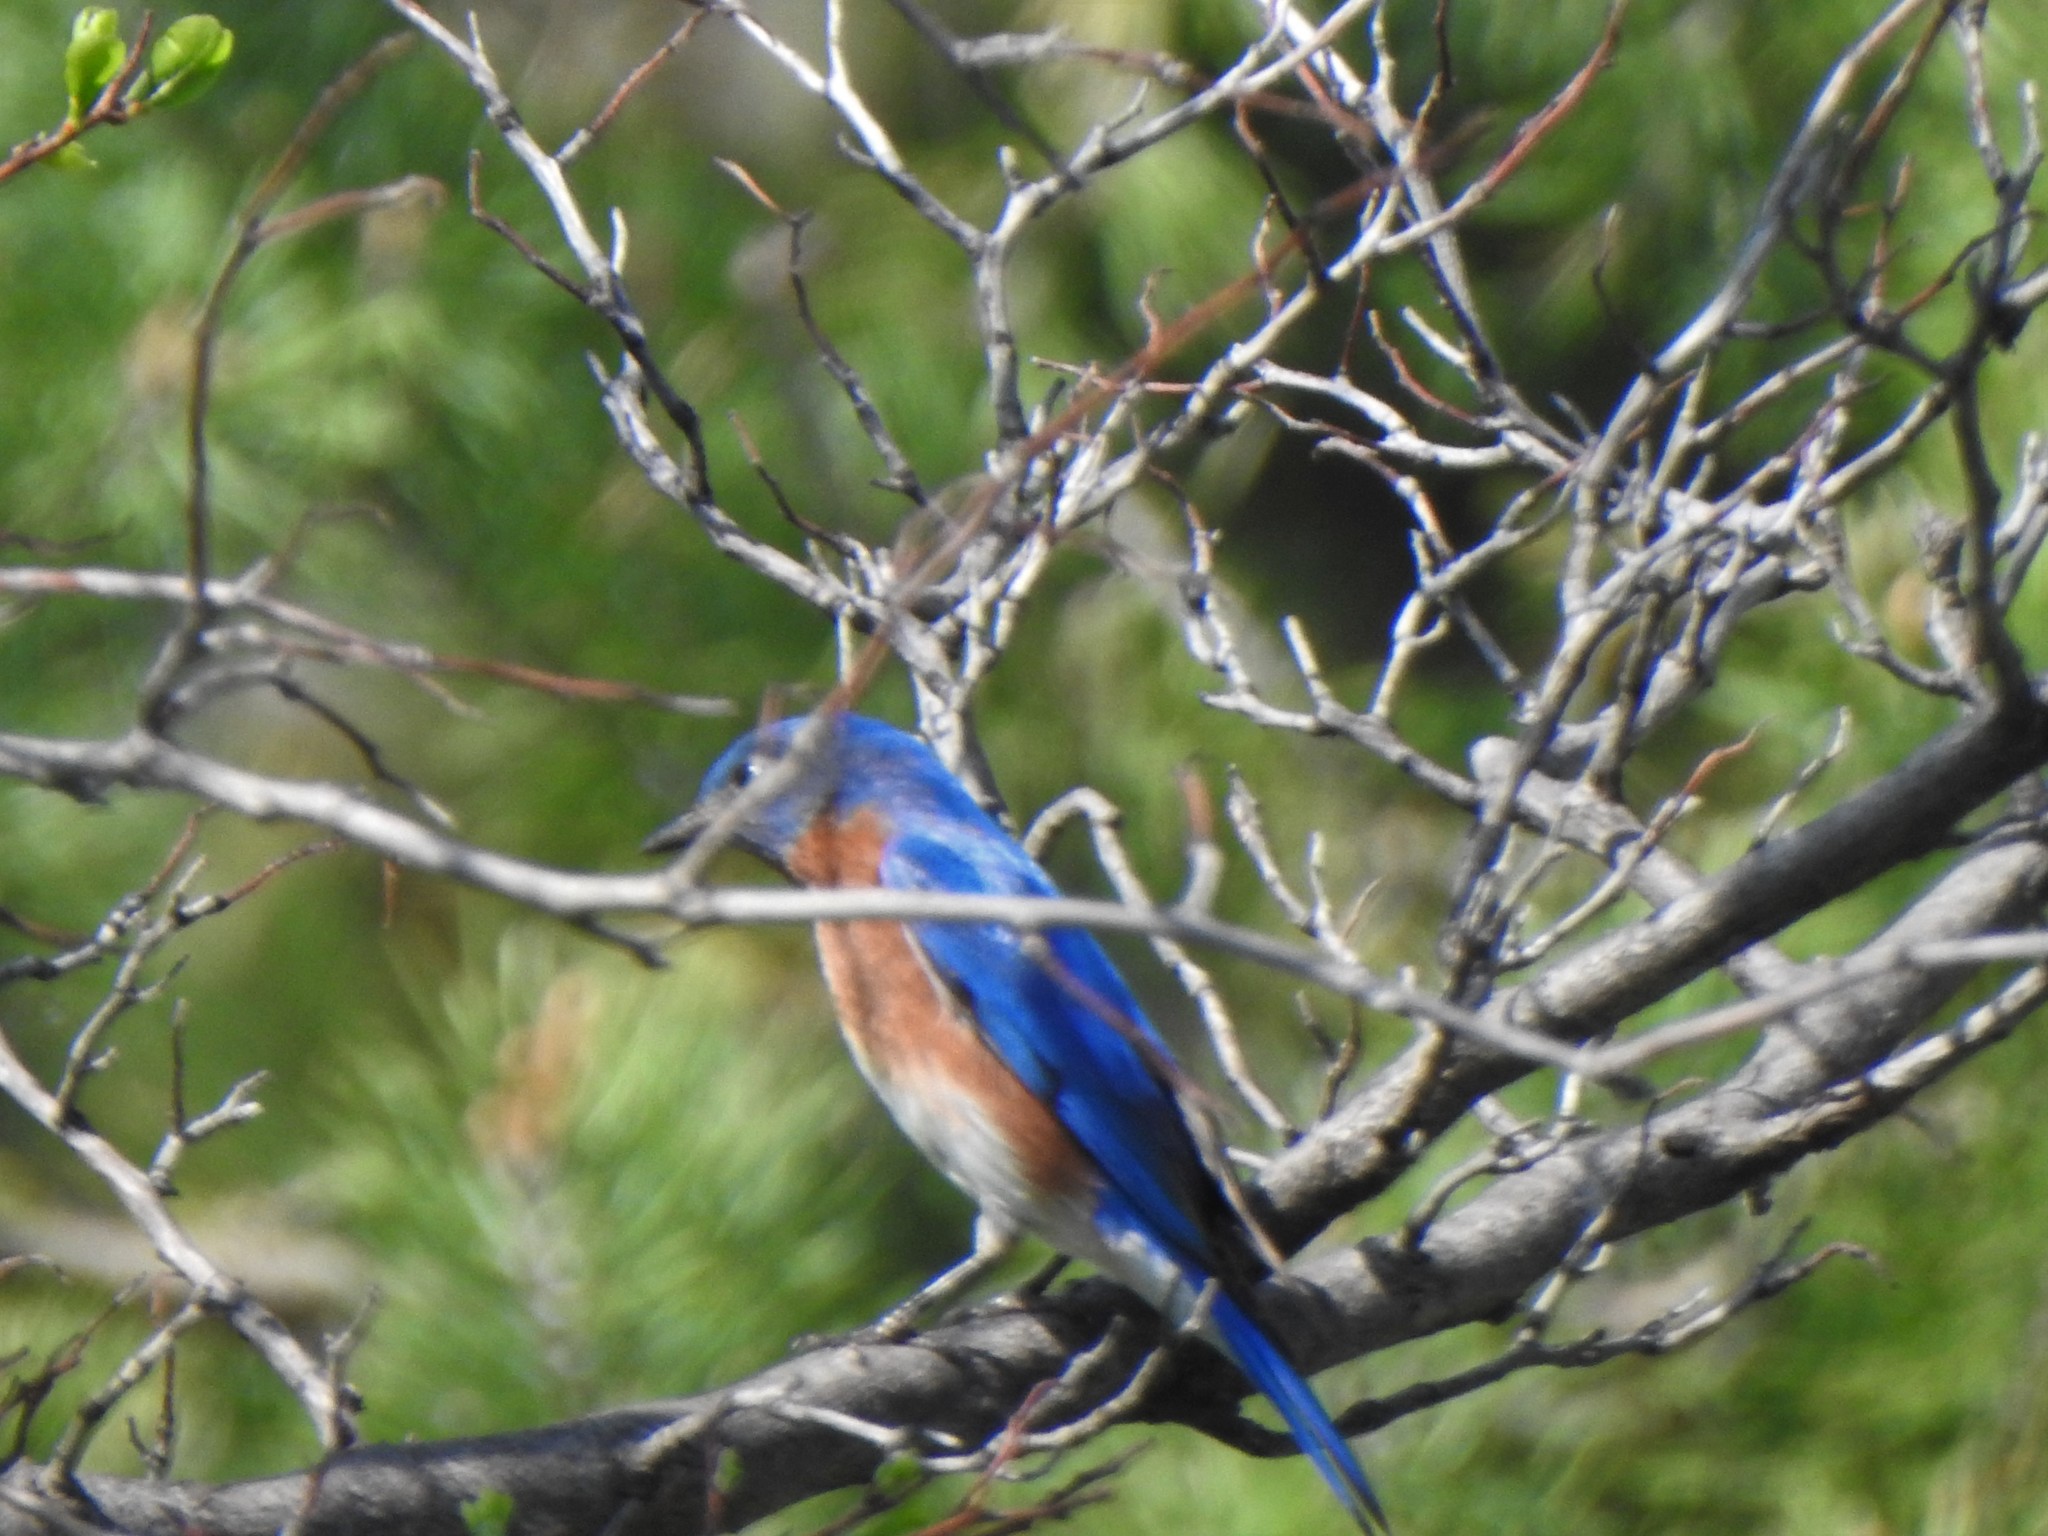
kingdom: Animalia
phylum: Chordata
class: Aves
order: Passeriformes
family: Turdidae
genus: Sialia
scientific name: Sialia sialis
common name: Eastern bluebird
